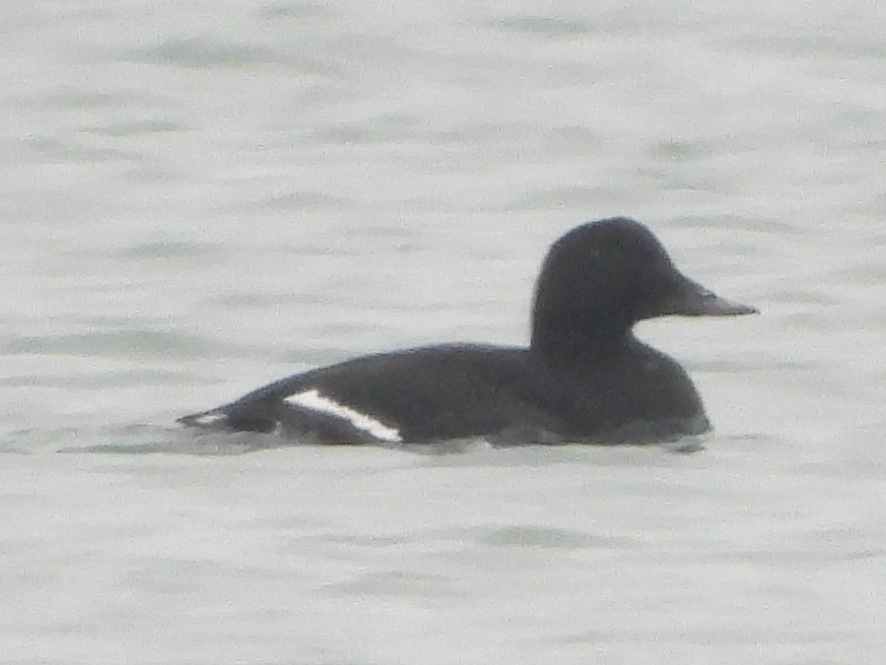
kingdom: Animalia
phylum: Chordata
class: Aves
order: Anseriformes
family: Anatidae
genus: Melanitta
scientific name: Melanitta fusca
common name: Velvet scoter
